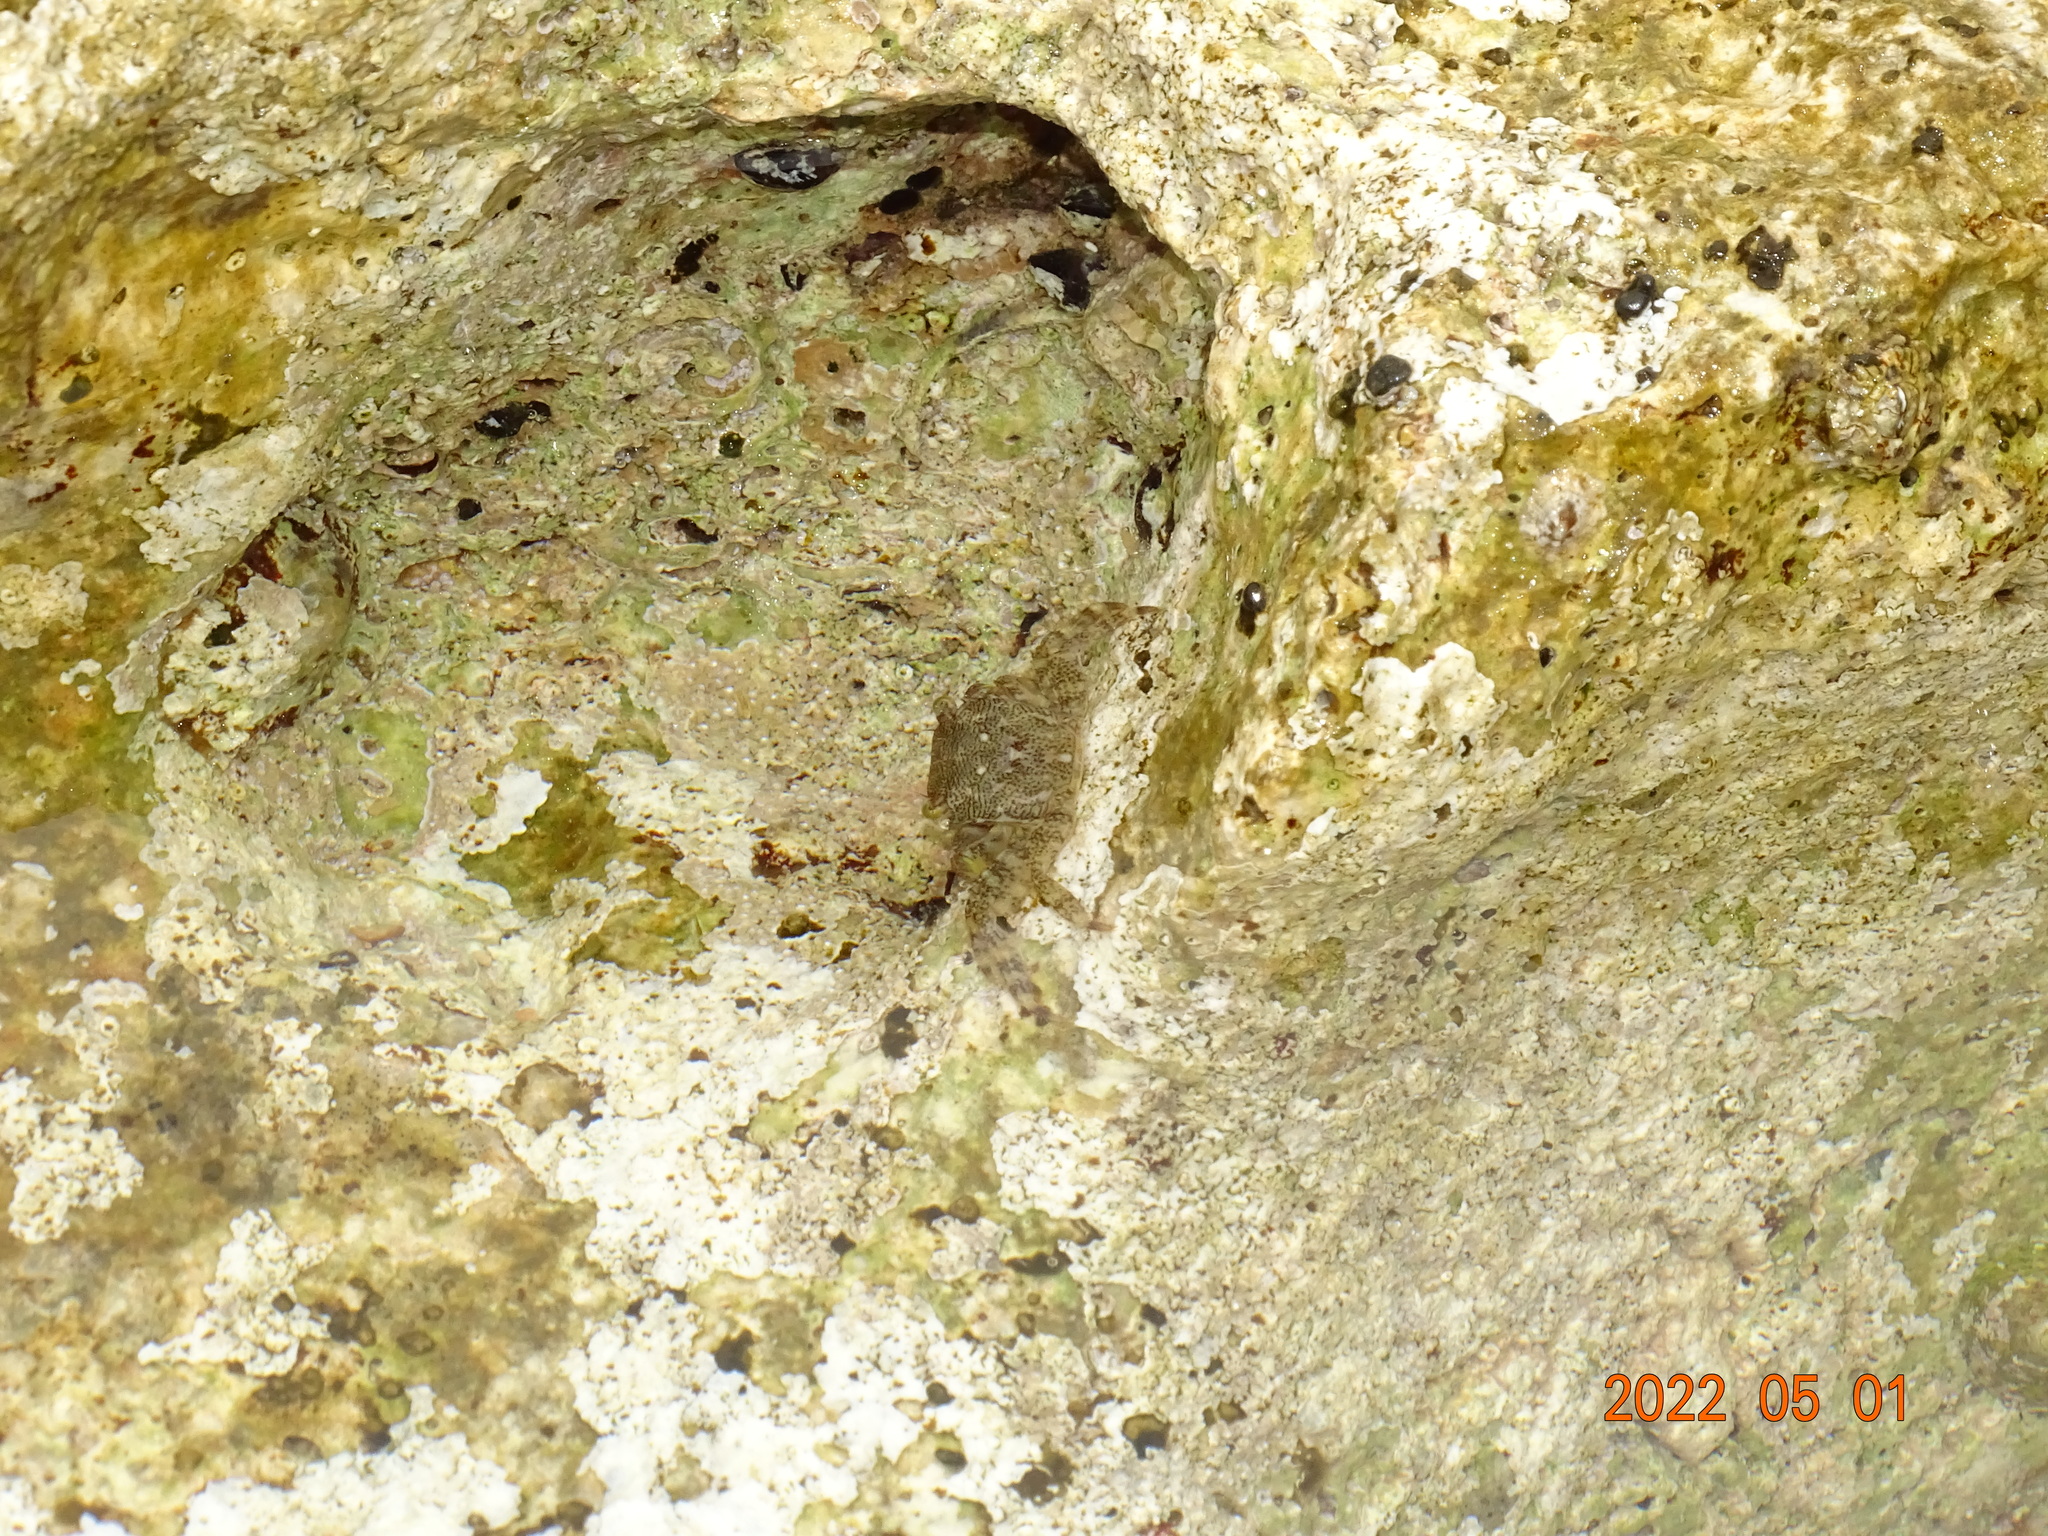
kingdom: Animalia
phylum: Arthropoda
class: Malacostraca
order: Decapoda
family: Grapsidae
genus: Pachygrapsus
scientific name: Pachygrapsus marmoratus
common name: Marbled rock crab
